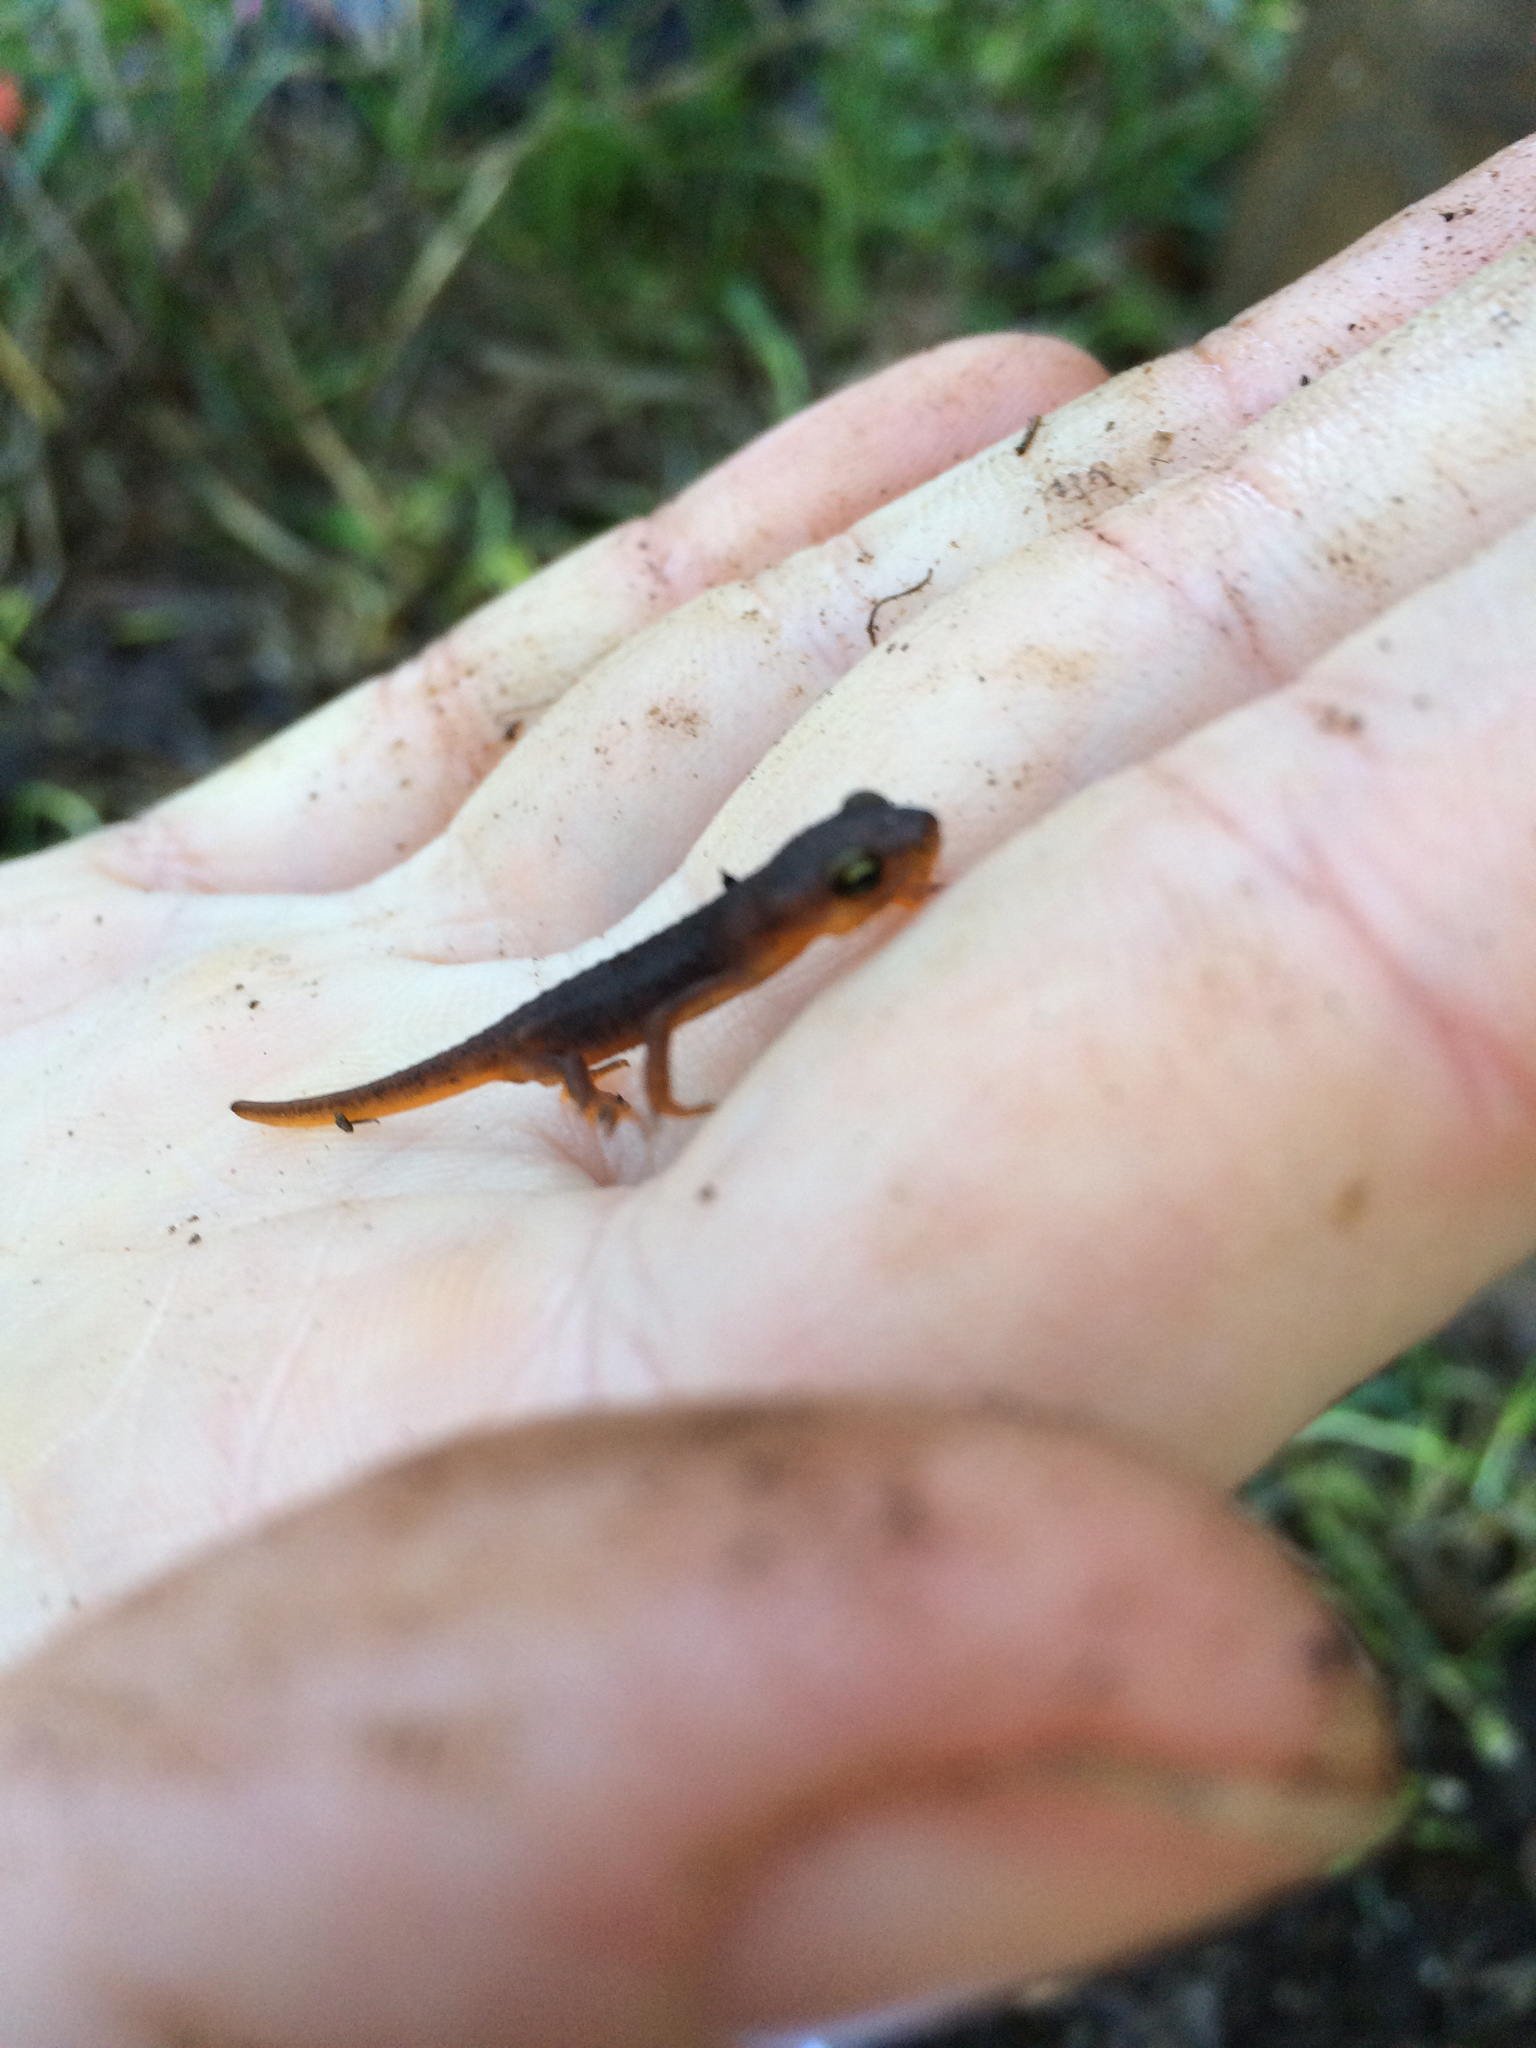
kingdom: Animalia
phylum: Chordata
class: Amphibia
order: Caudata
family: Salamandridae
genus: Taricha
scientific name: Taricha torosa
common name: California newt
